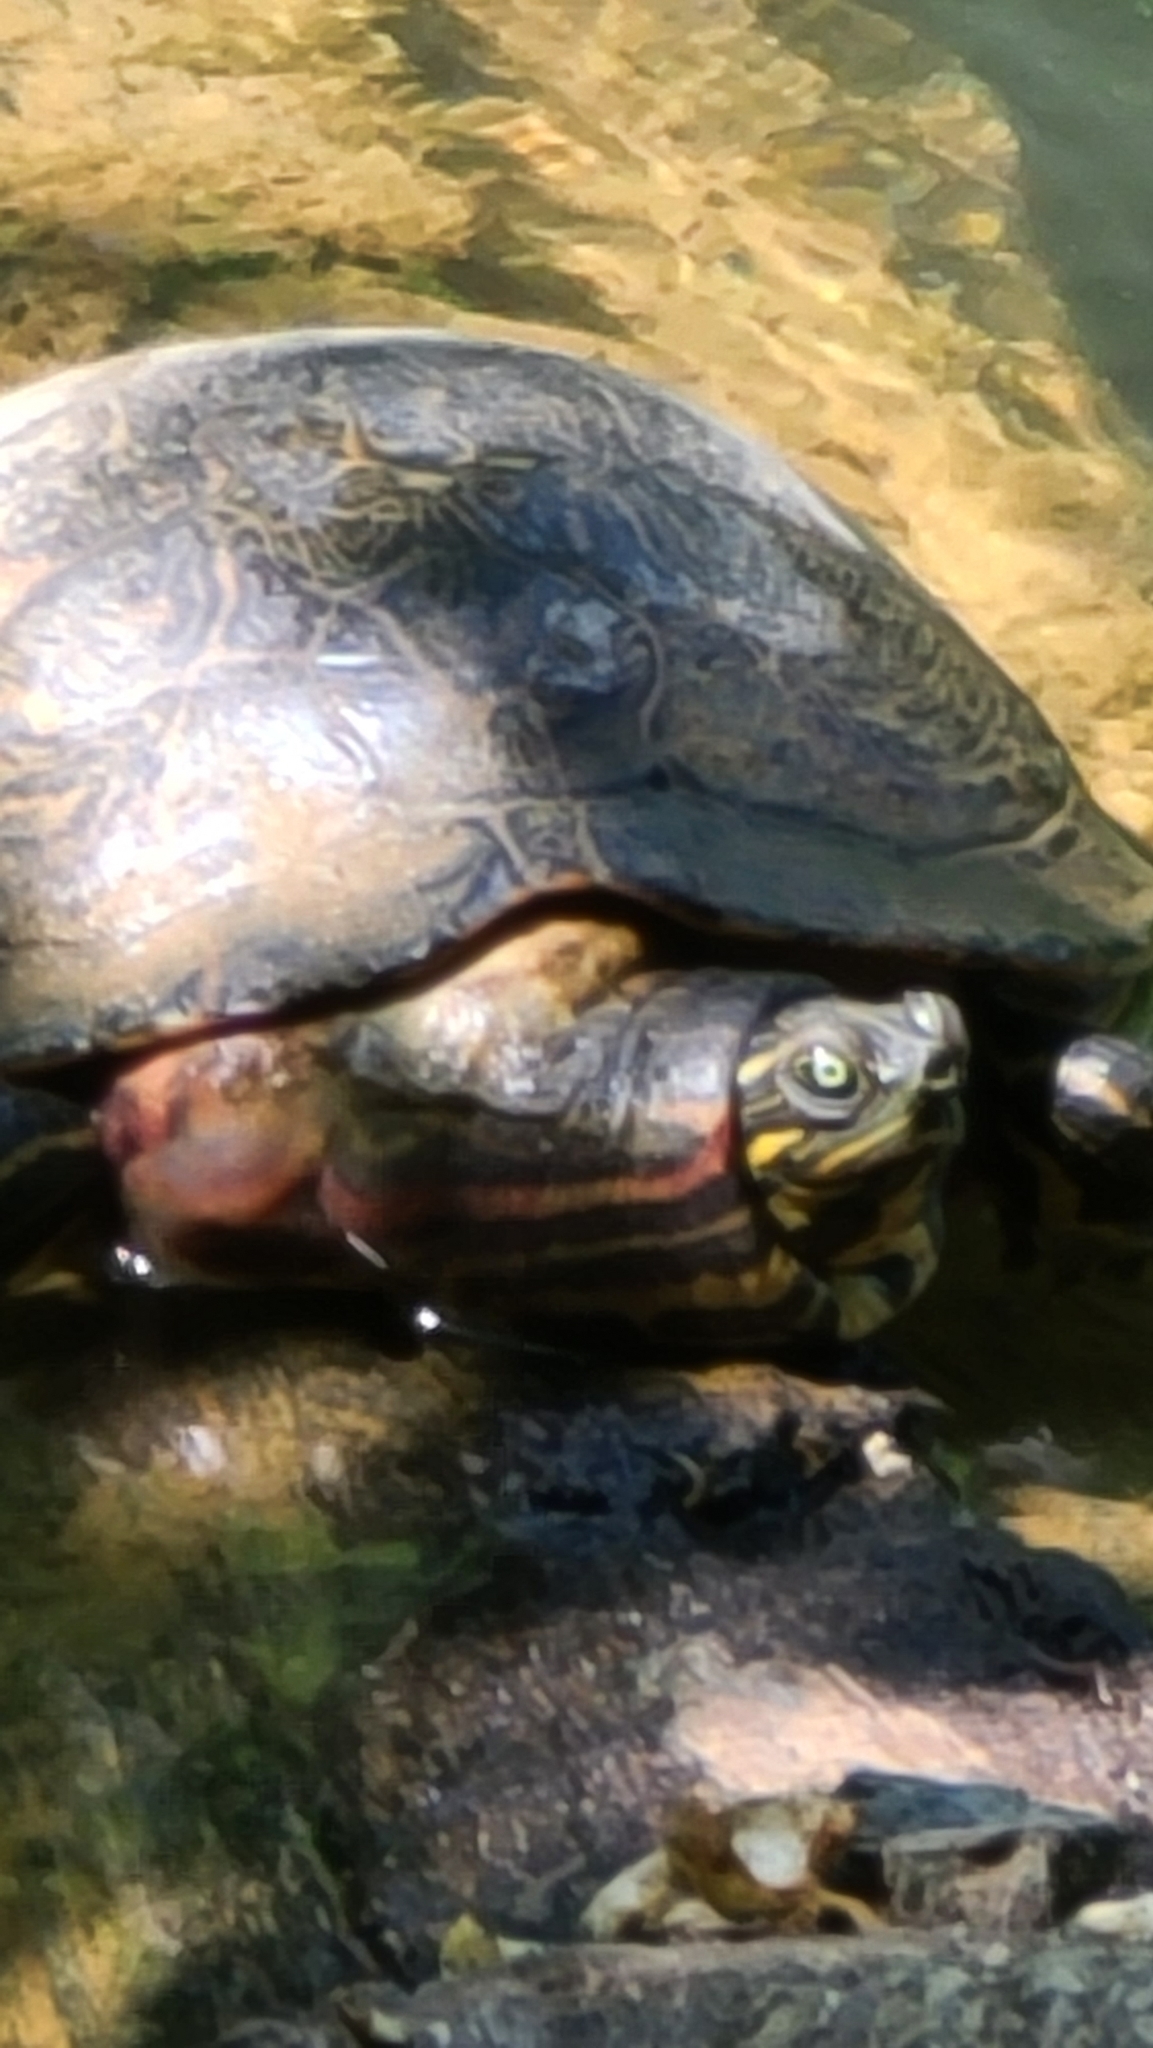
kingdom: Animalia
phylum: Chordata
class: Testudines
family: Emydidae
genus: Pseudemys
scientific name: Pseudemys concinna
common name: Eastern river cooter
